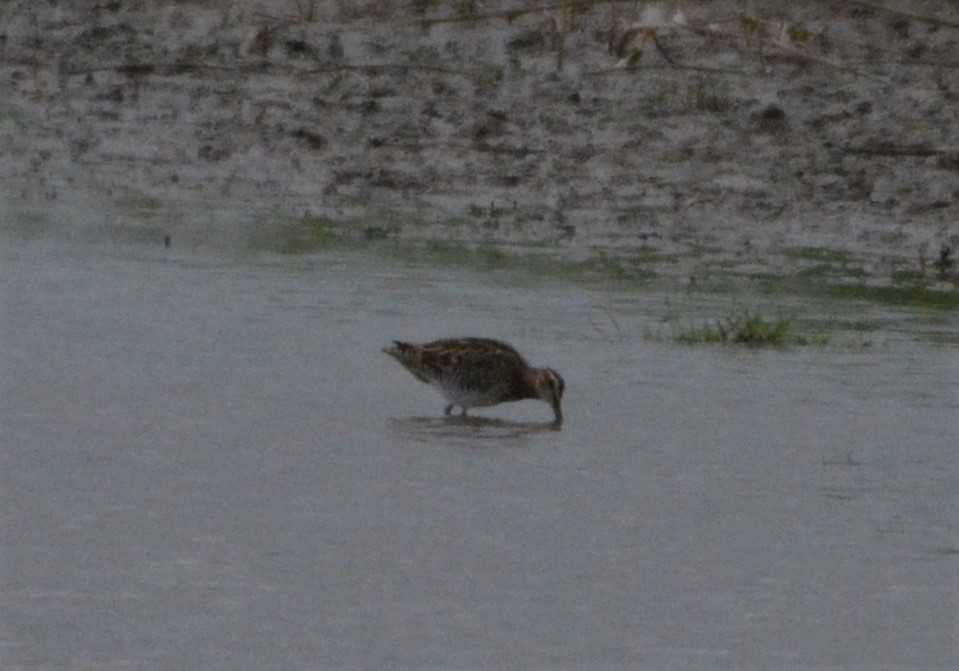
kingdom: Animalia
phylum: Chordata
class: Aves
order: Charadriiformes
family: Scolopacidae
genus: Gallinago
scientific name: Gallinago gallinago
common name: Common snipe
